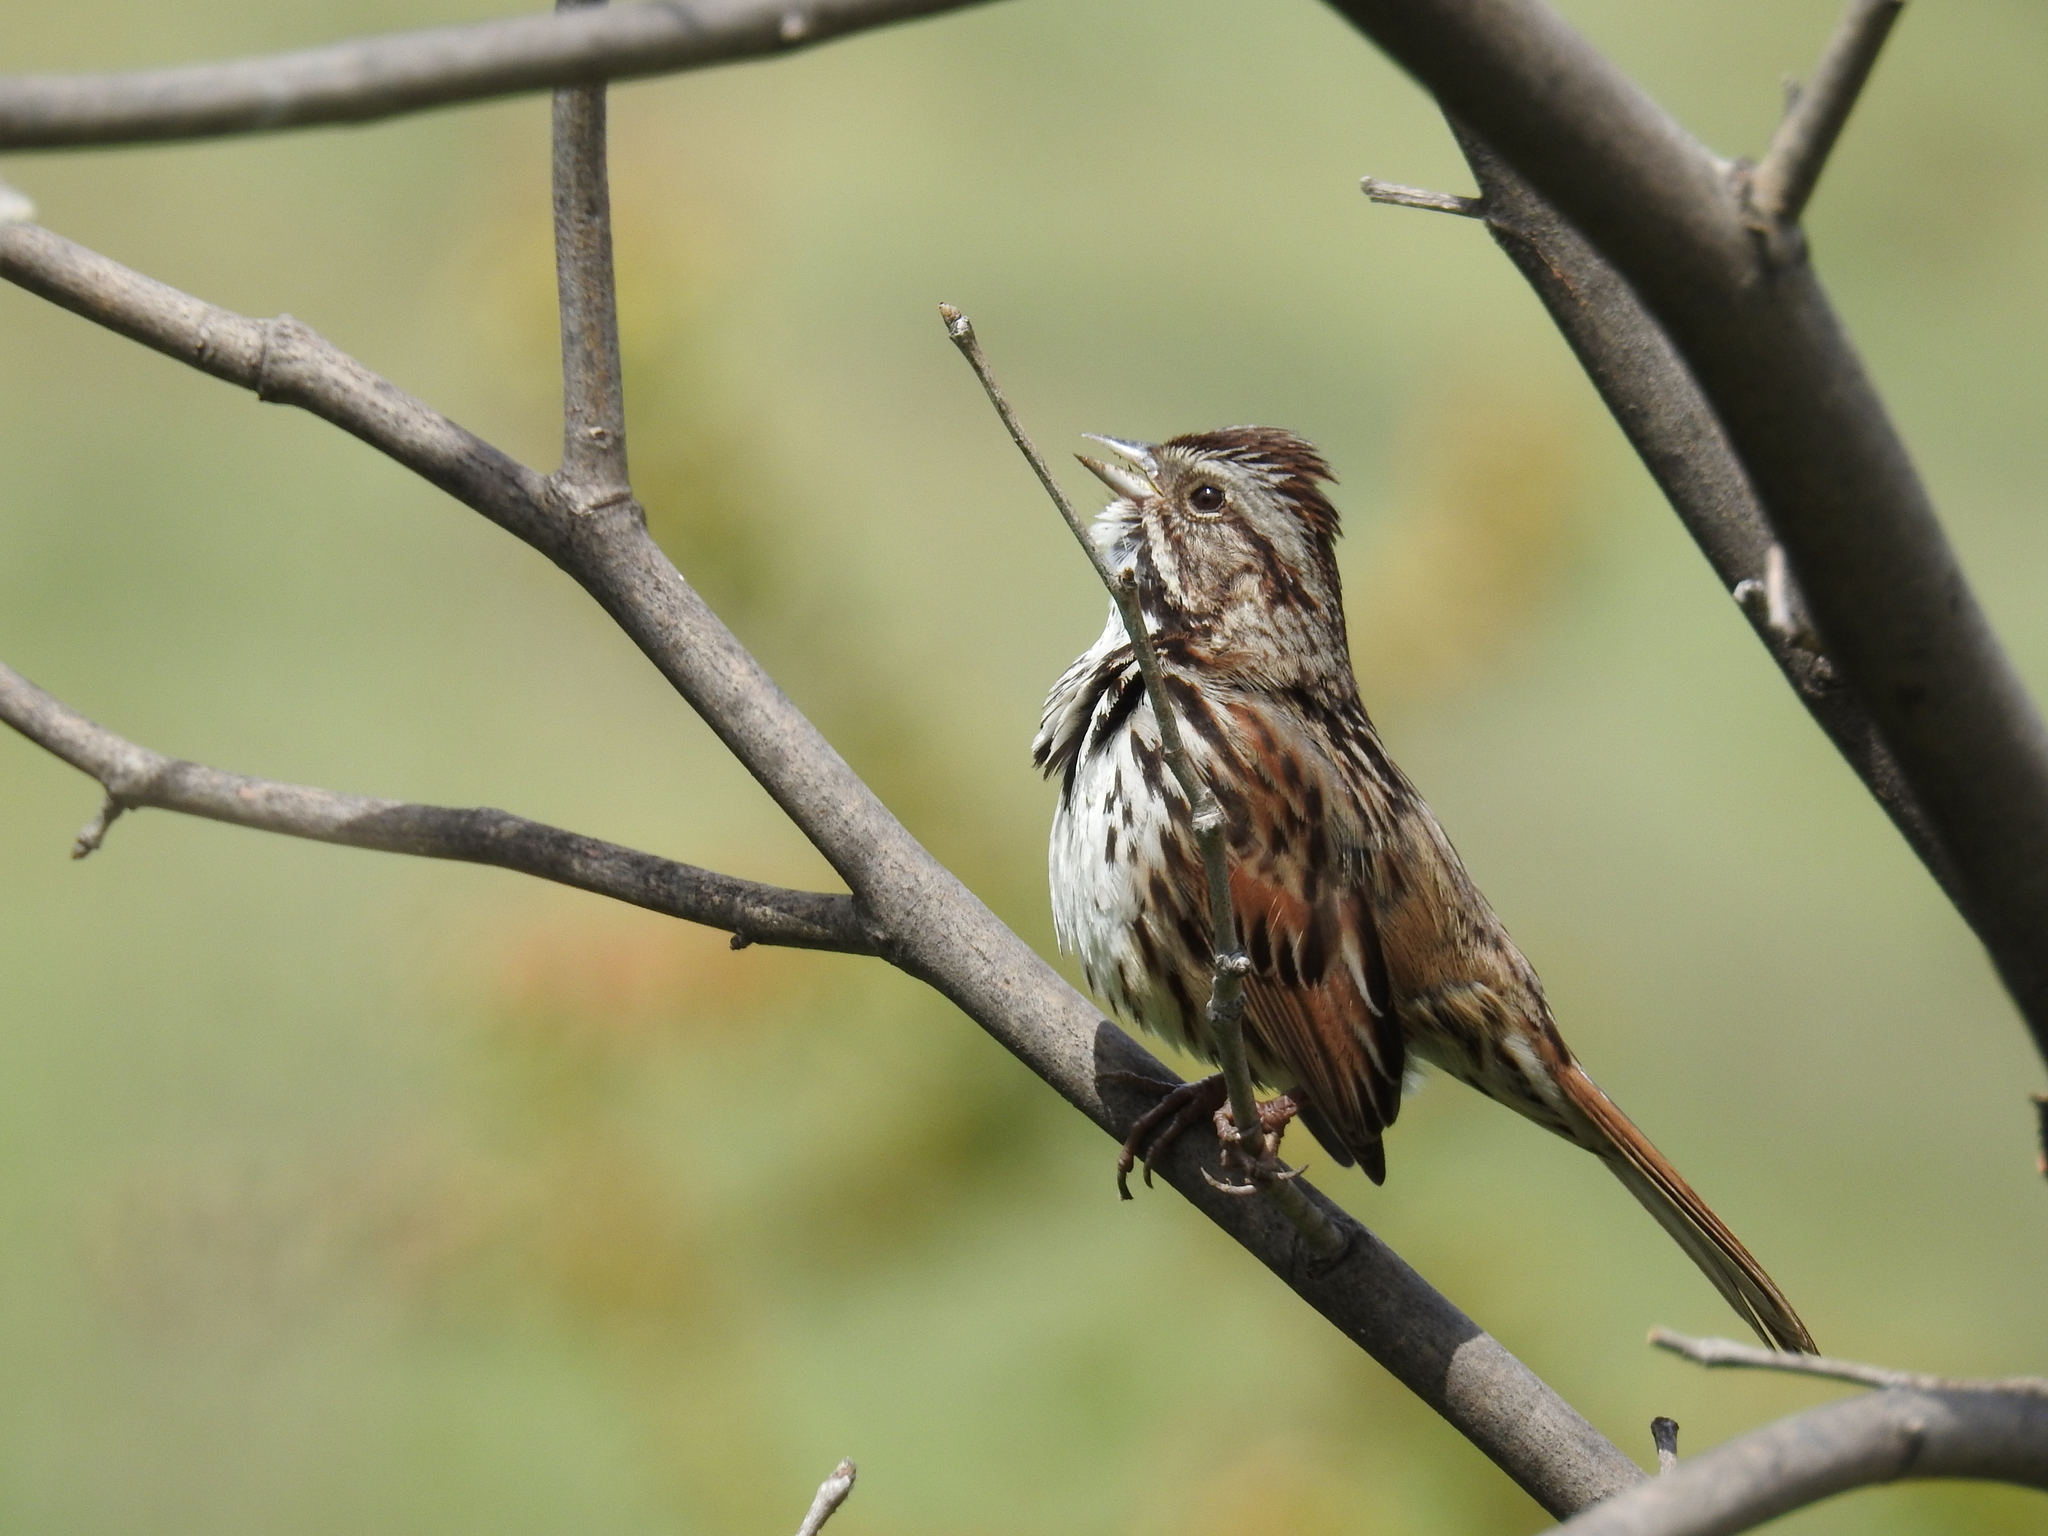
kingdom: Animalia
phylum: Chordata
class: Aves
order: Passeriformes
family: Passerellidae
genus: Melospiza
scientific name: Melospiza melodia
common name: Song sparrow
